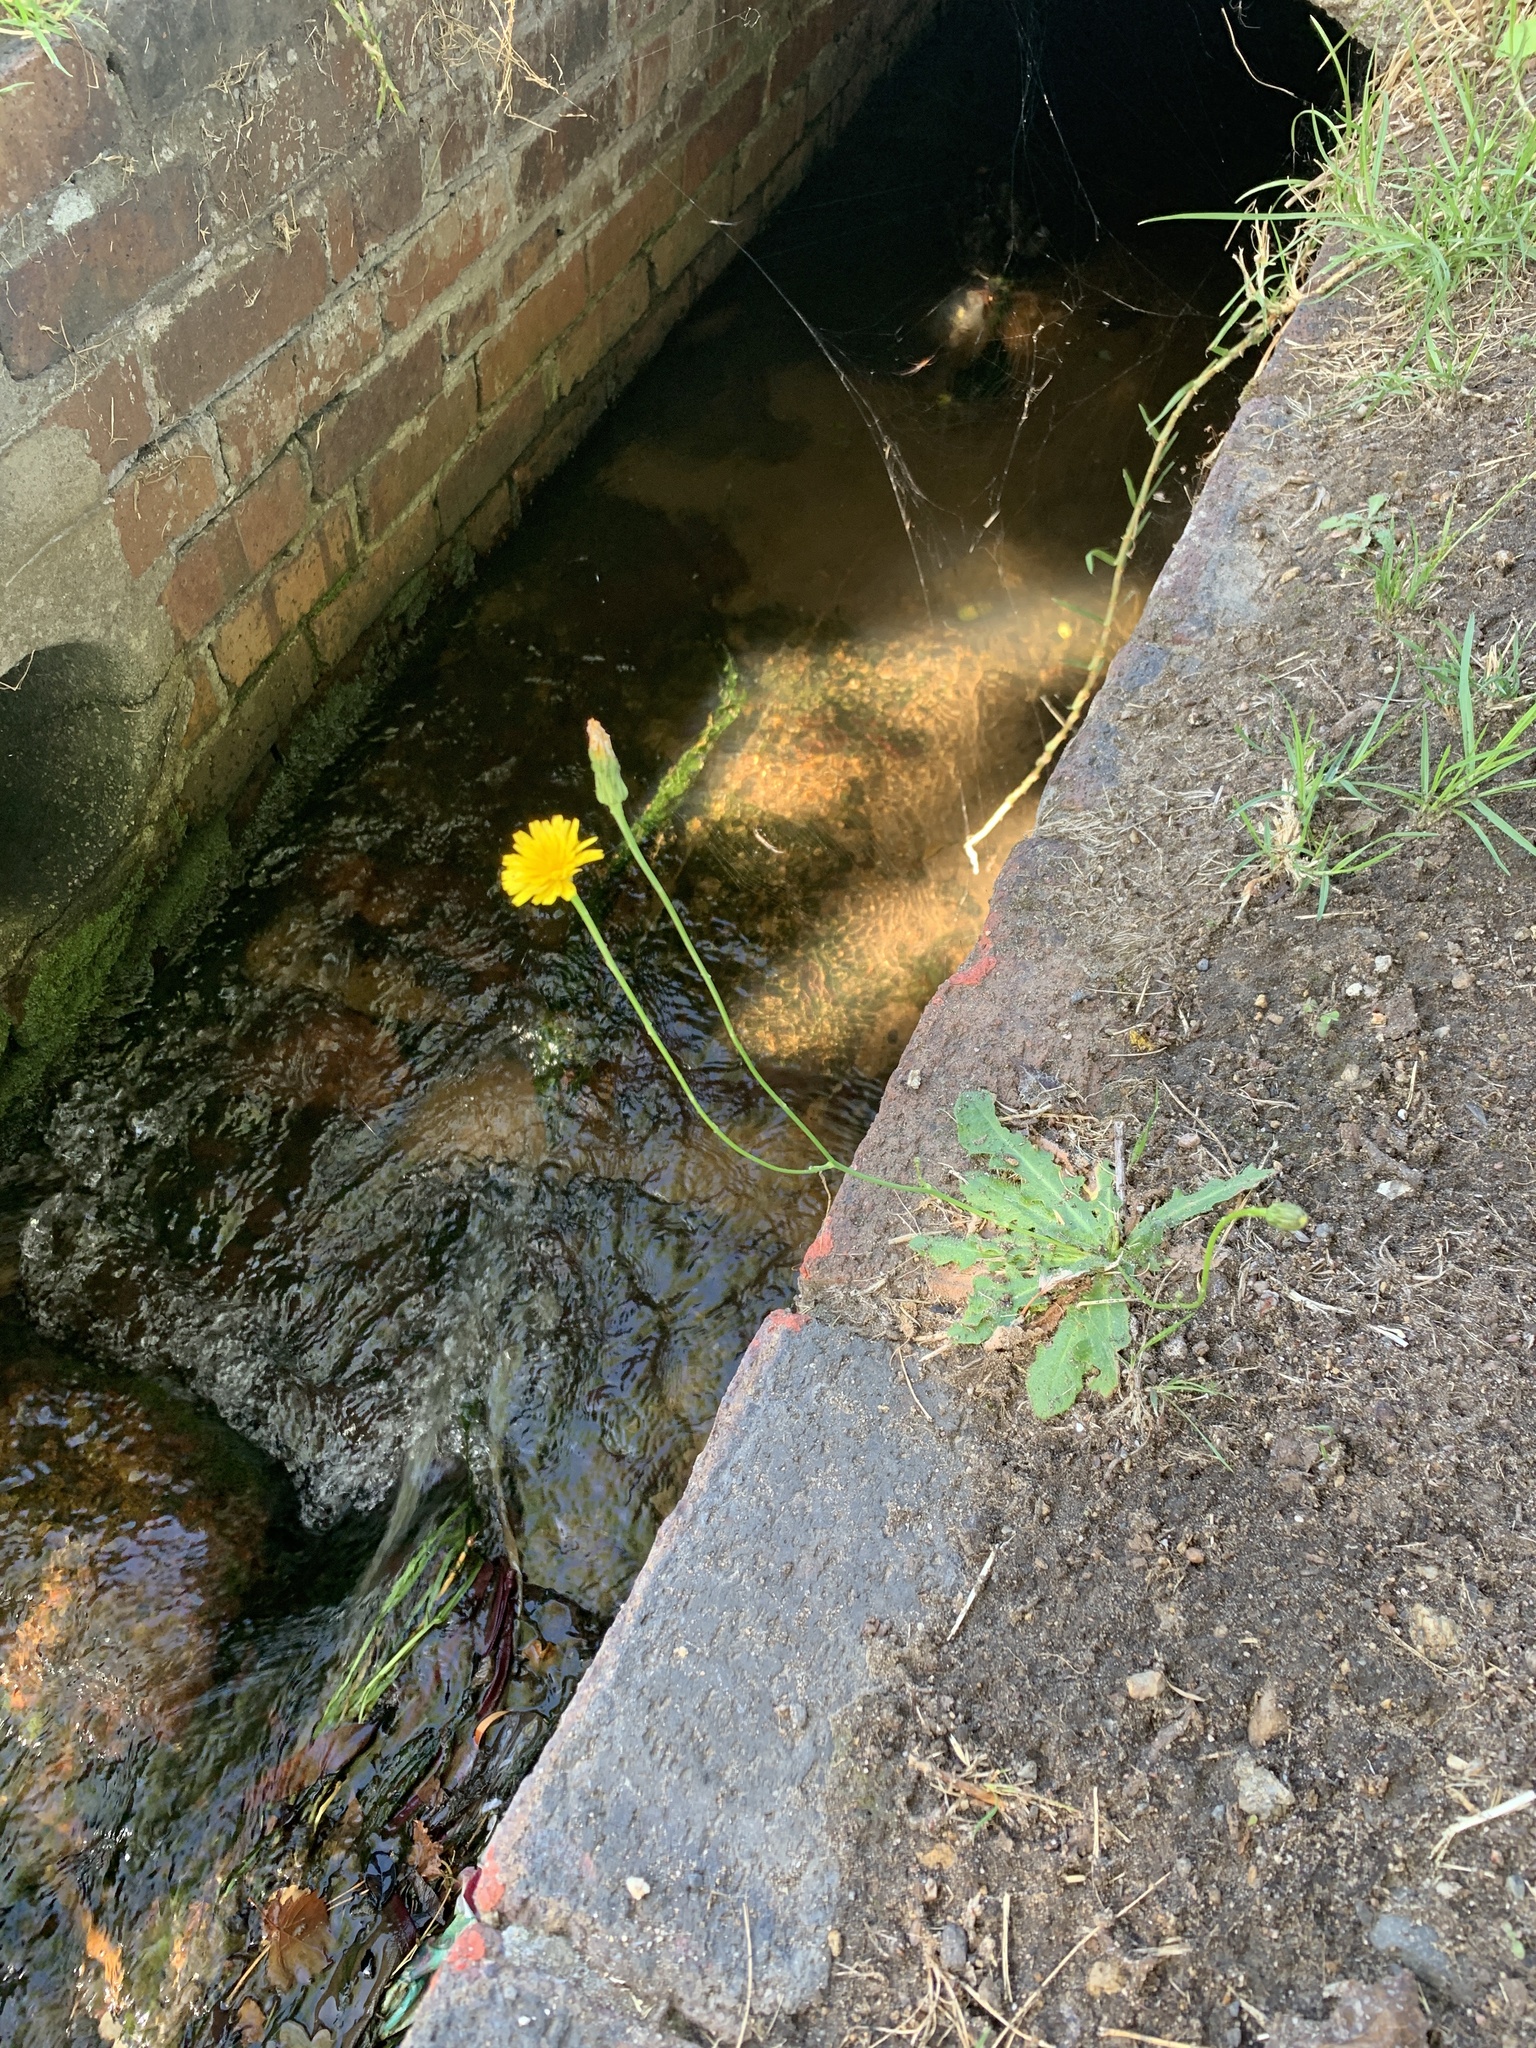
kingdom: Plantae
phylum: Tracheophyta
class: Magnoliopsida
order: Asterales
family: Asteraceae
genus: Hypochaeris
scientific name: Hypochaeris radicata
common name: Flatweed
